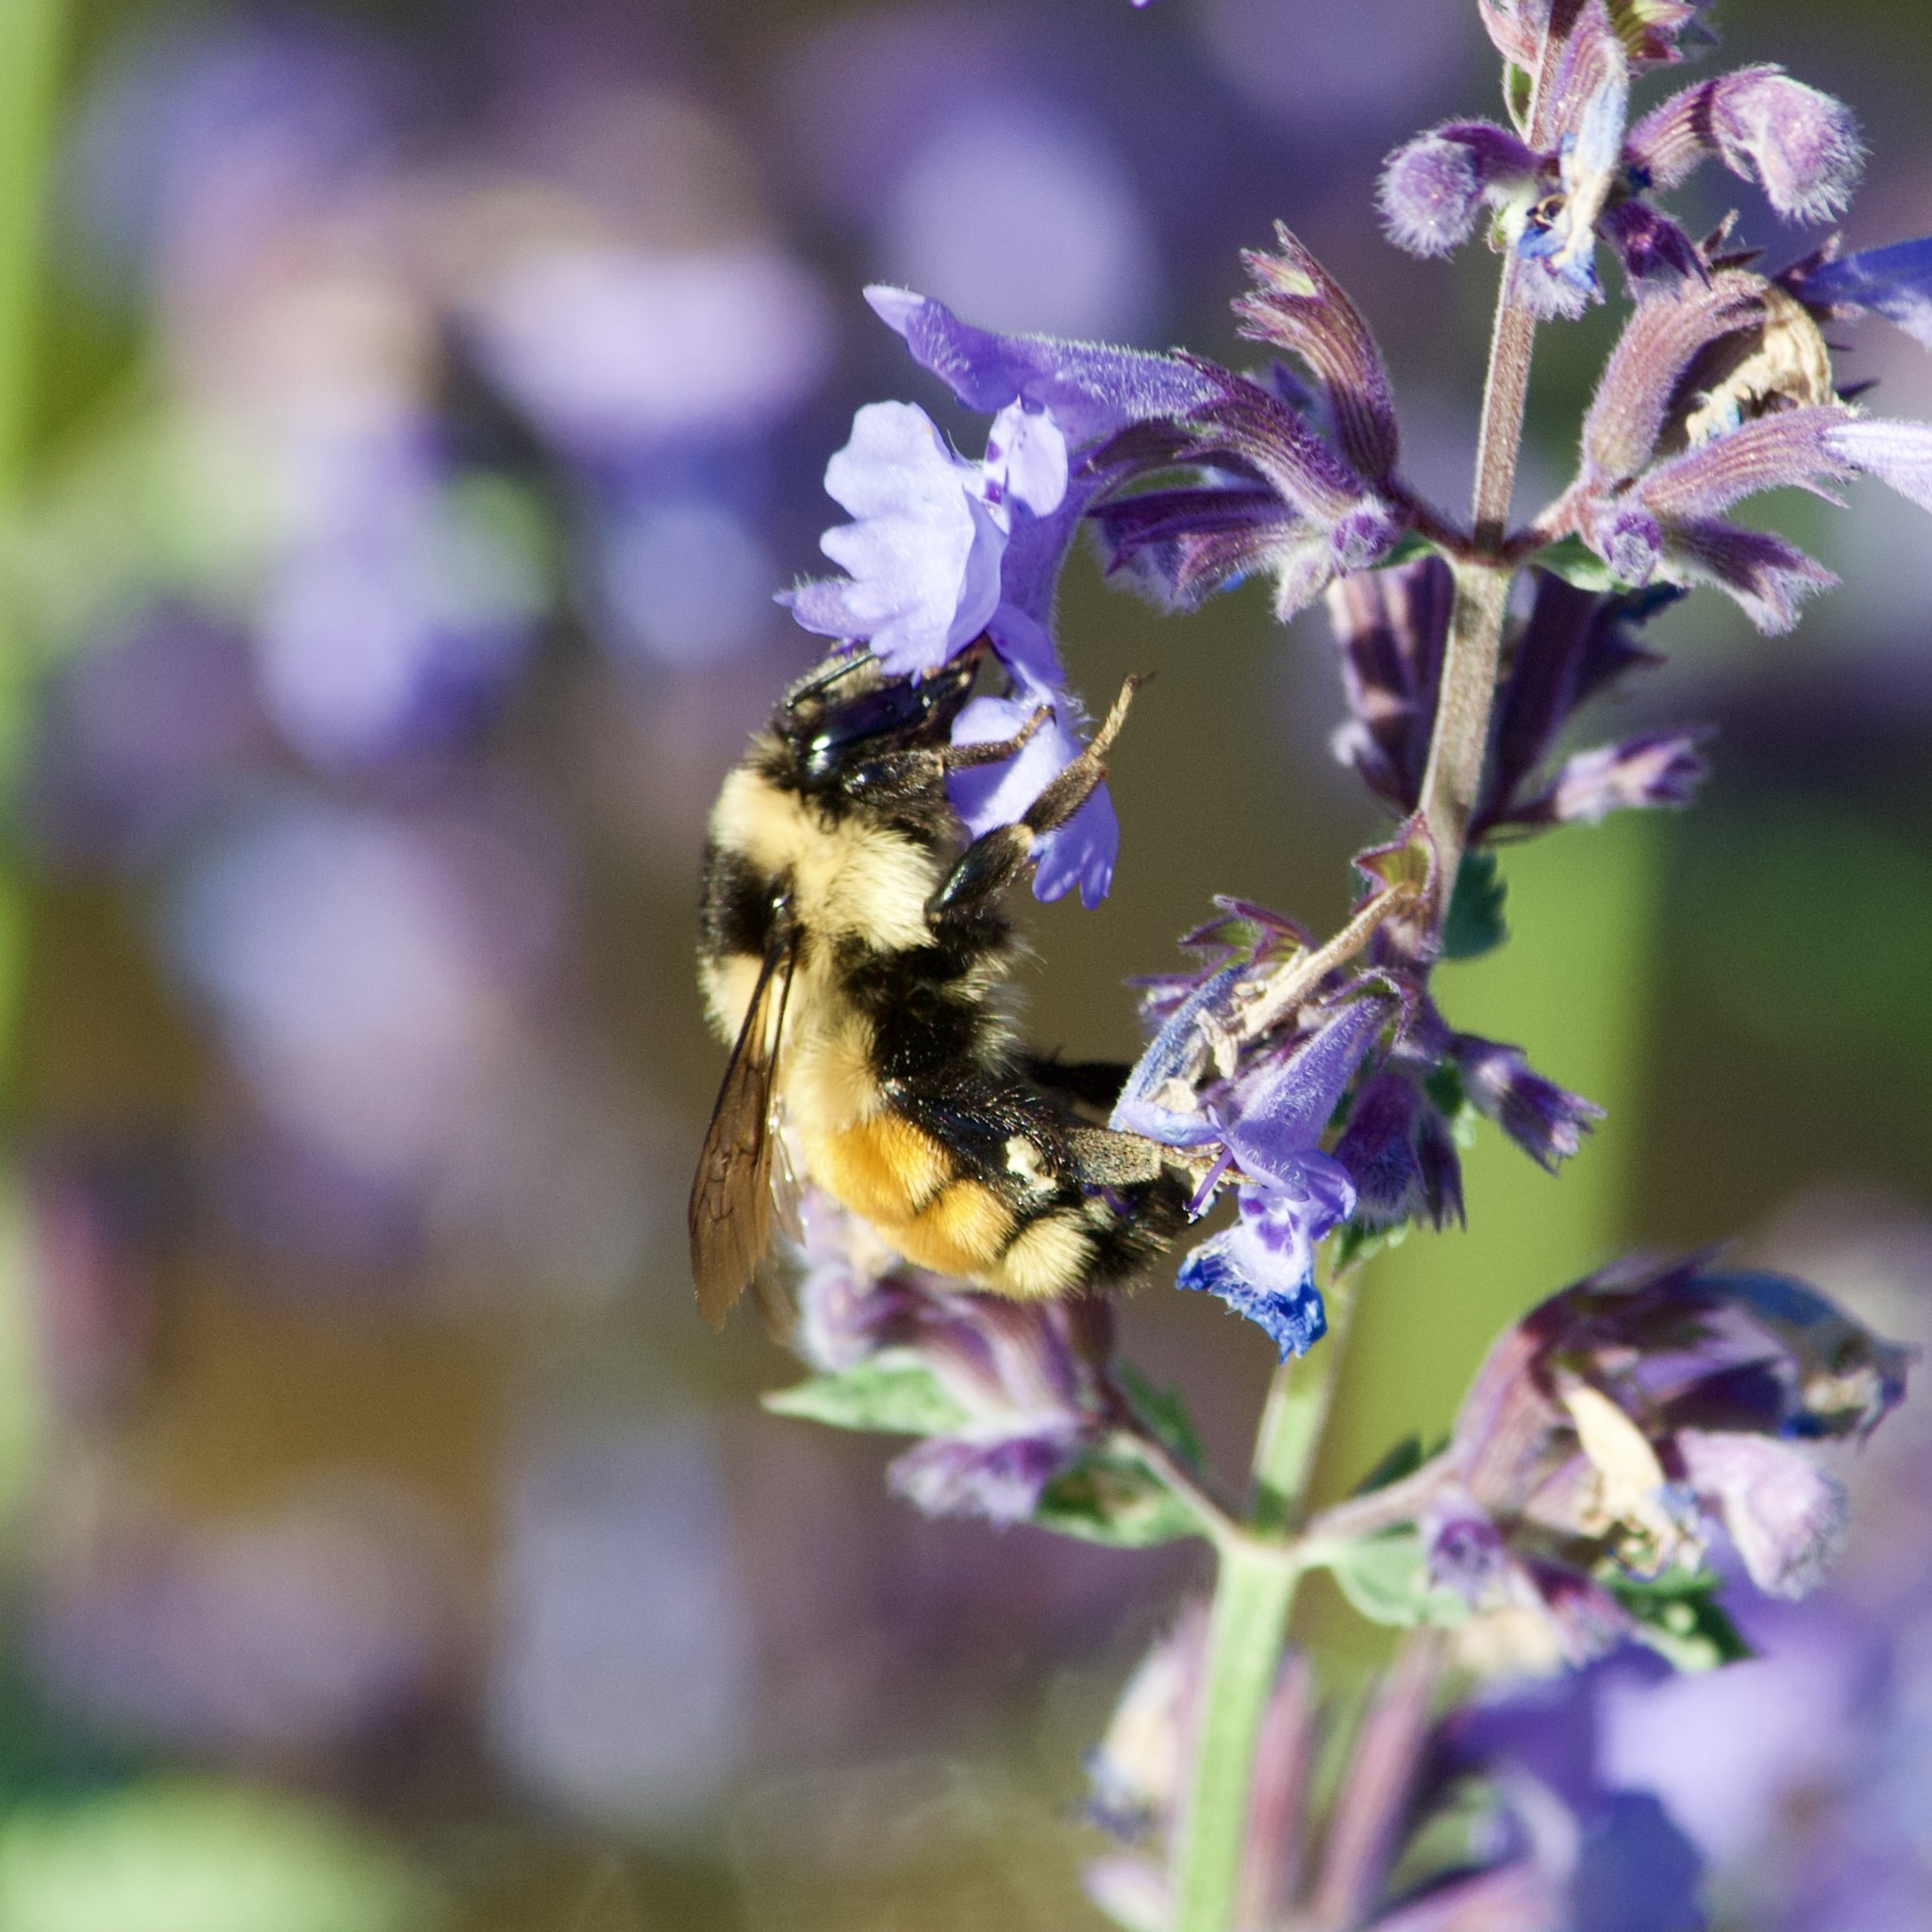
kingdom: Animalia
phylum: Arthropoda
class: Insecta
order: Hymenoptera
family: Apidae
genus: Bombus
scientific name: Bombus ternarius
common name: Tri-colored bumble bee
